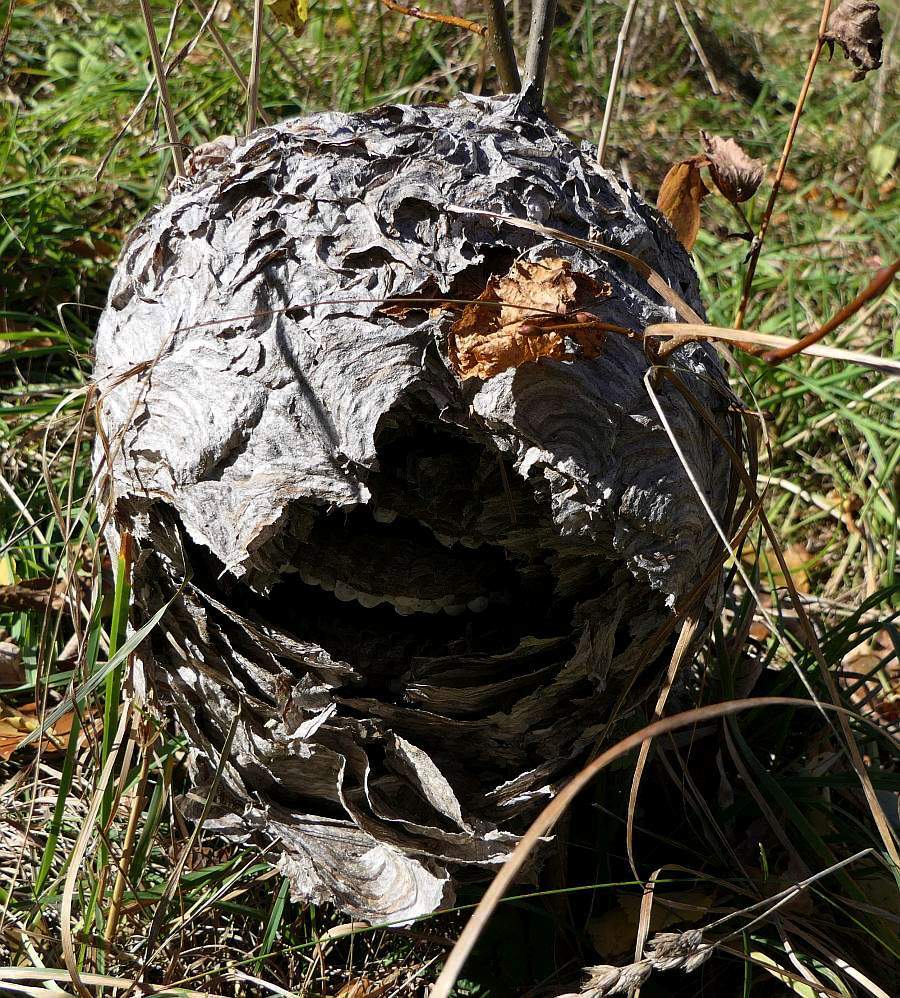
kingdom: Animalia
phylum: Arthropoda
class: Insecta
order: Hymenoptera
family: Vespidae
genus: Dolichovespula
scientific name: Dolichovespula maculata
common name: Bald-faced hornet
